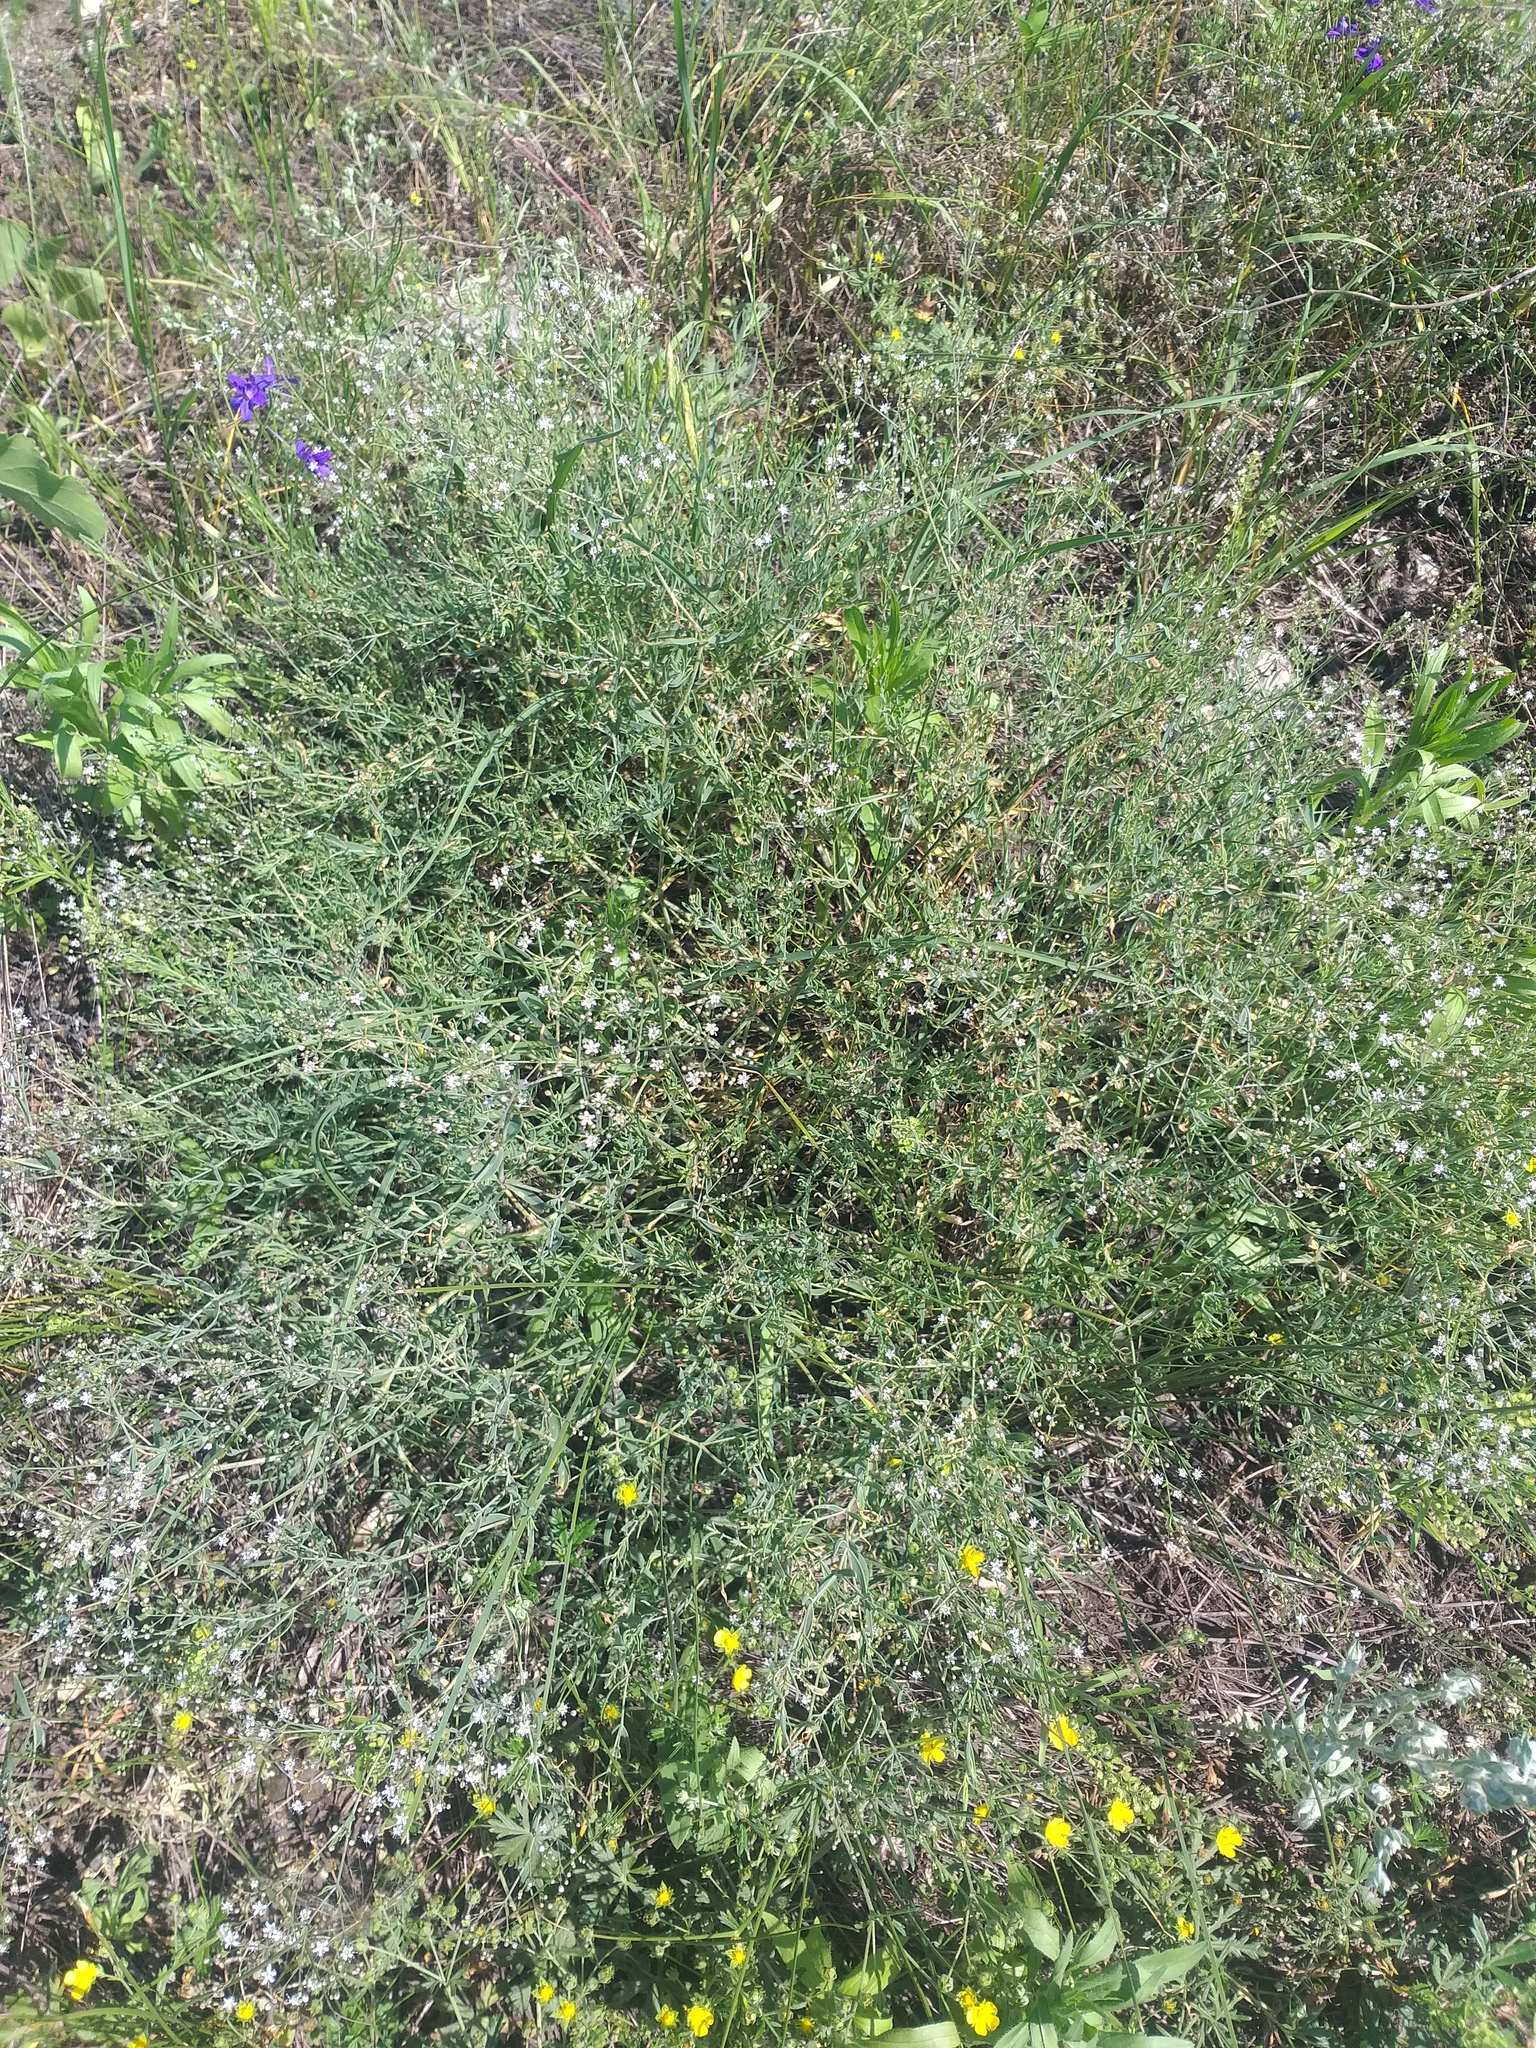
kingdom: Plantae
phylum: Tracheophyta
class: Magnoliopsida
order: Caryophyllales
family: Caryophyllaceae
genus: Gypsophila
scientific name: Gypsophila paniculata
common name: Baby's-breath
